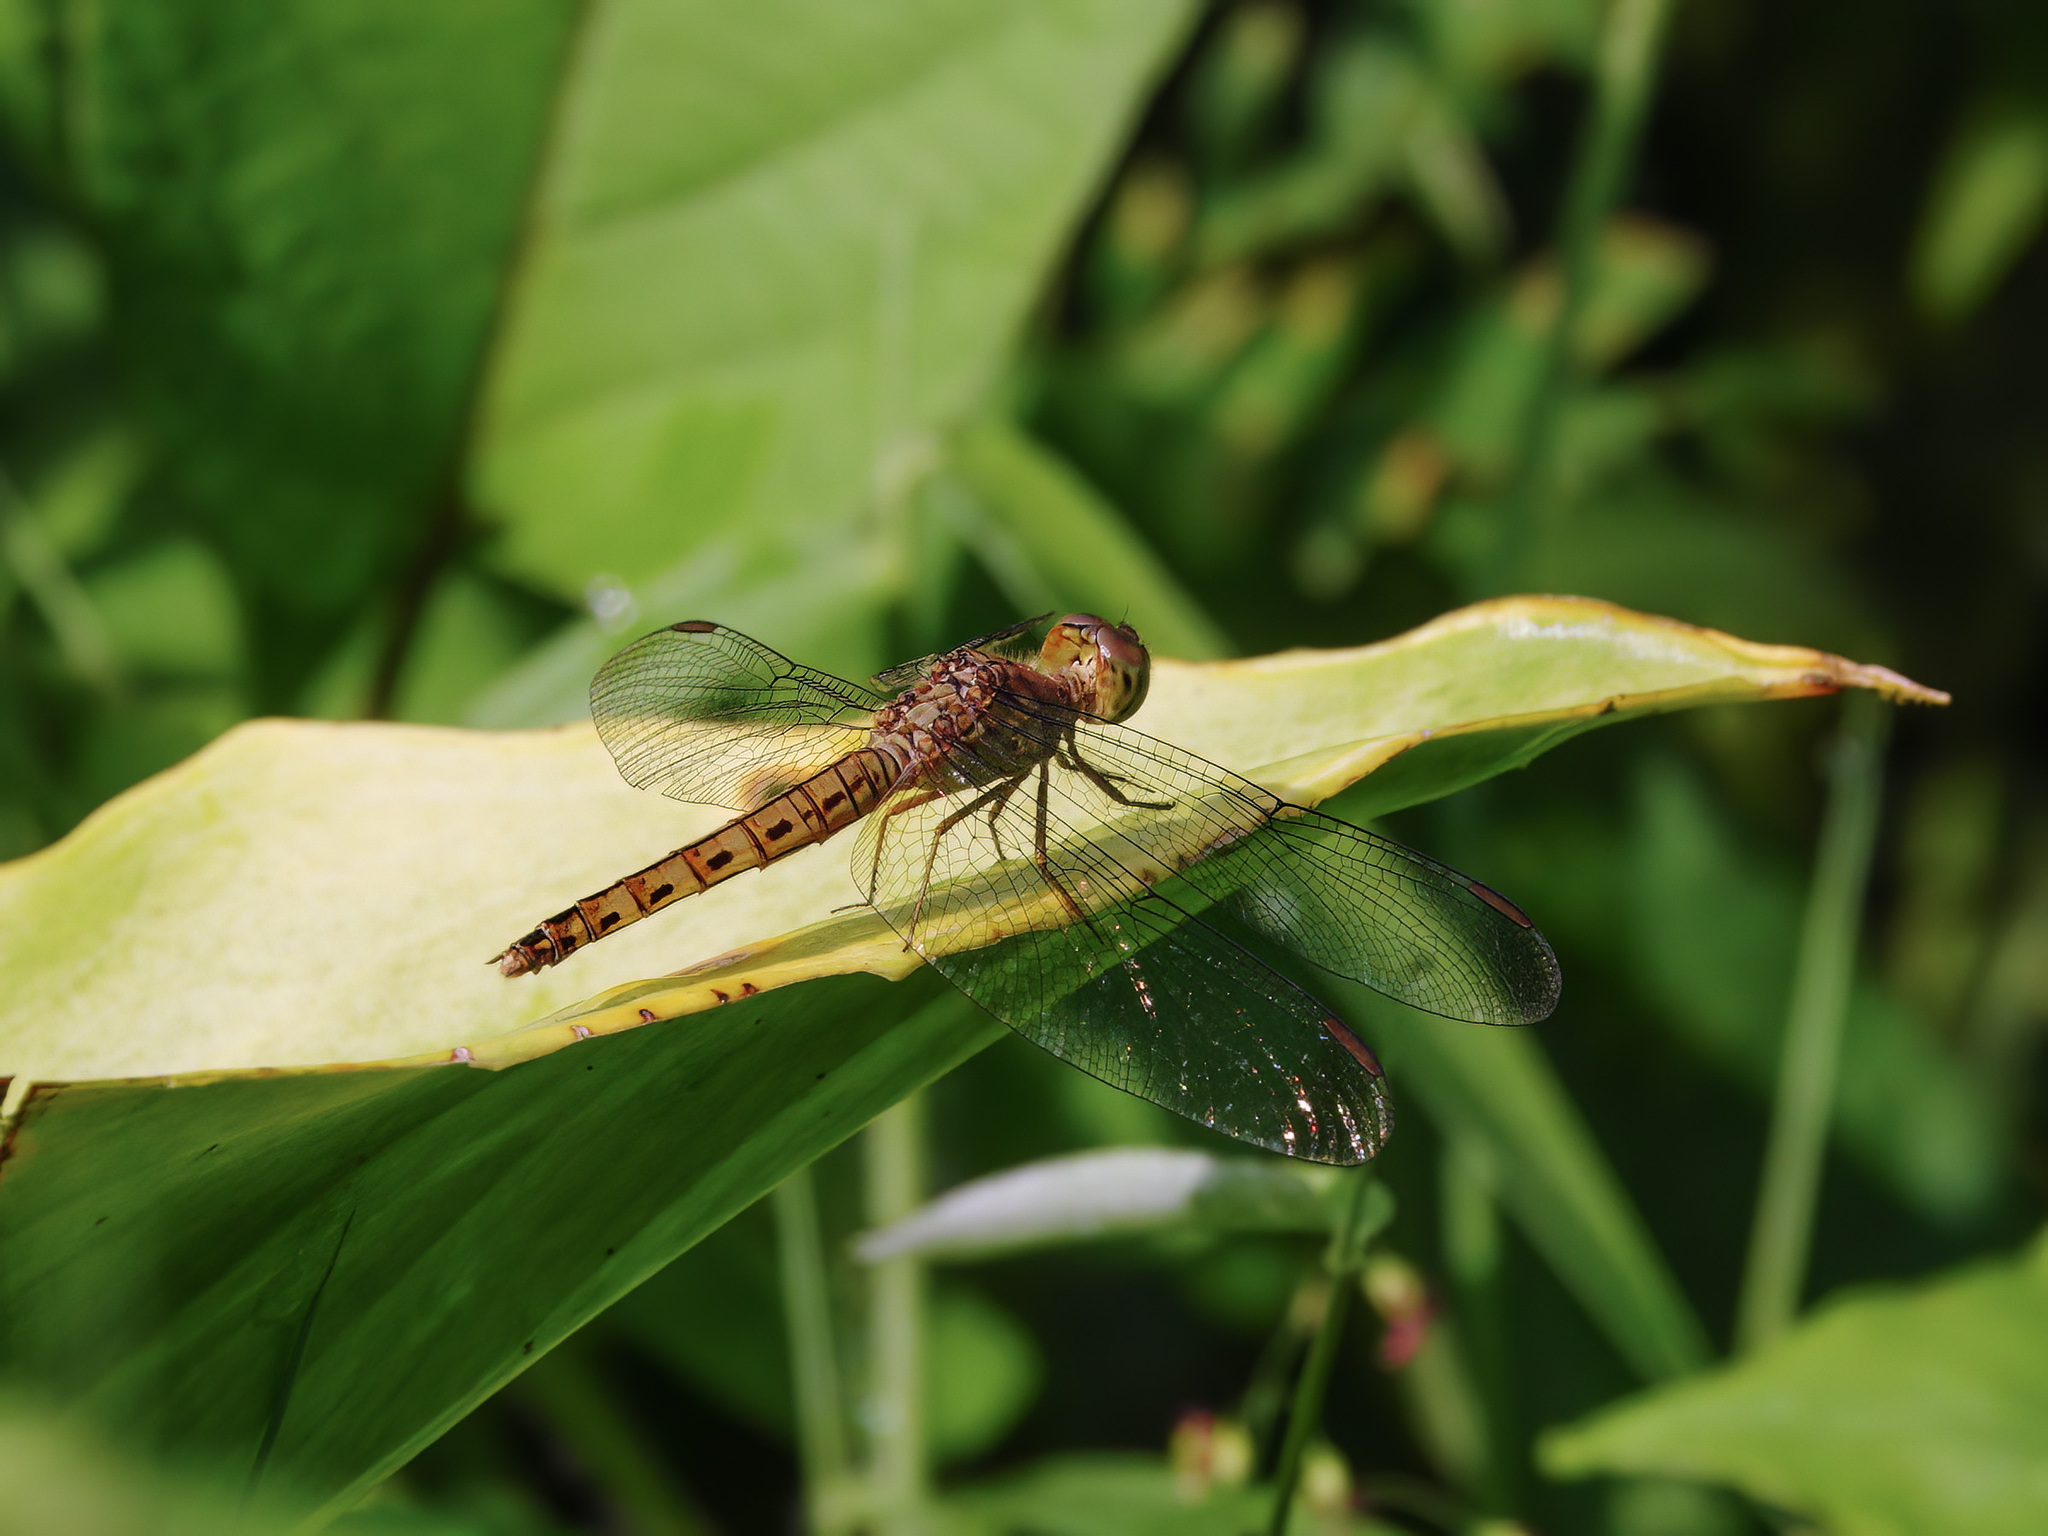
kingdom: Animalia
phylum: Arthropoda
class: Insecta
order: Odonata
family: Libellulidae
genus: Neurothemis
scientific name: Neurothemis fluctuans
